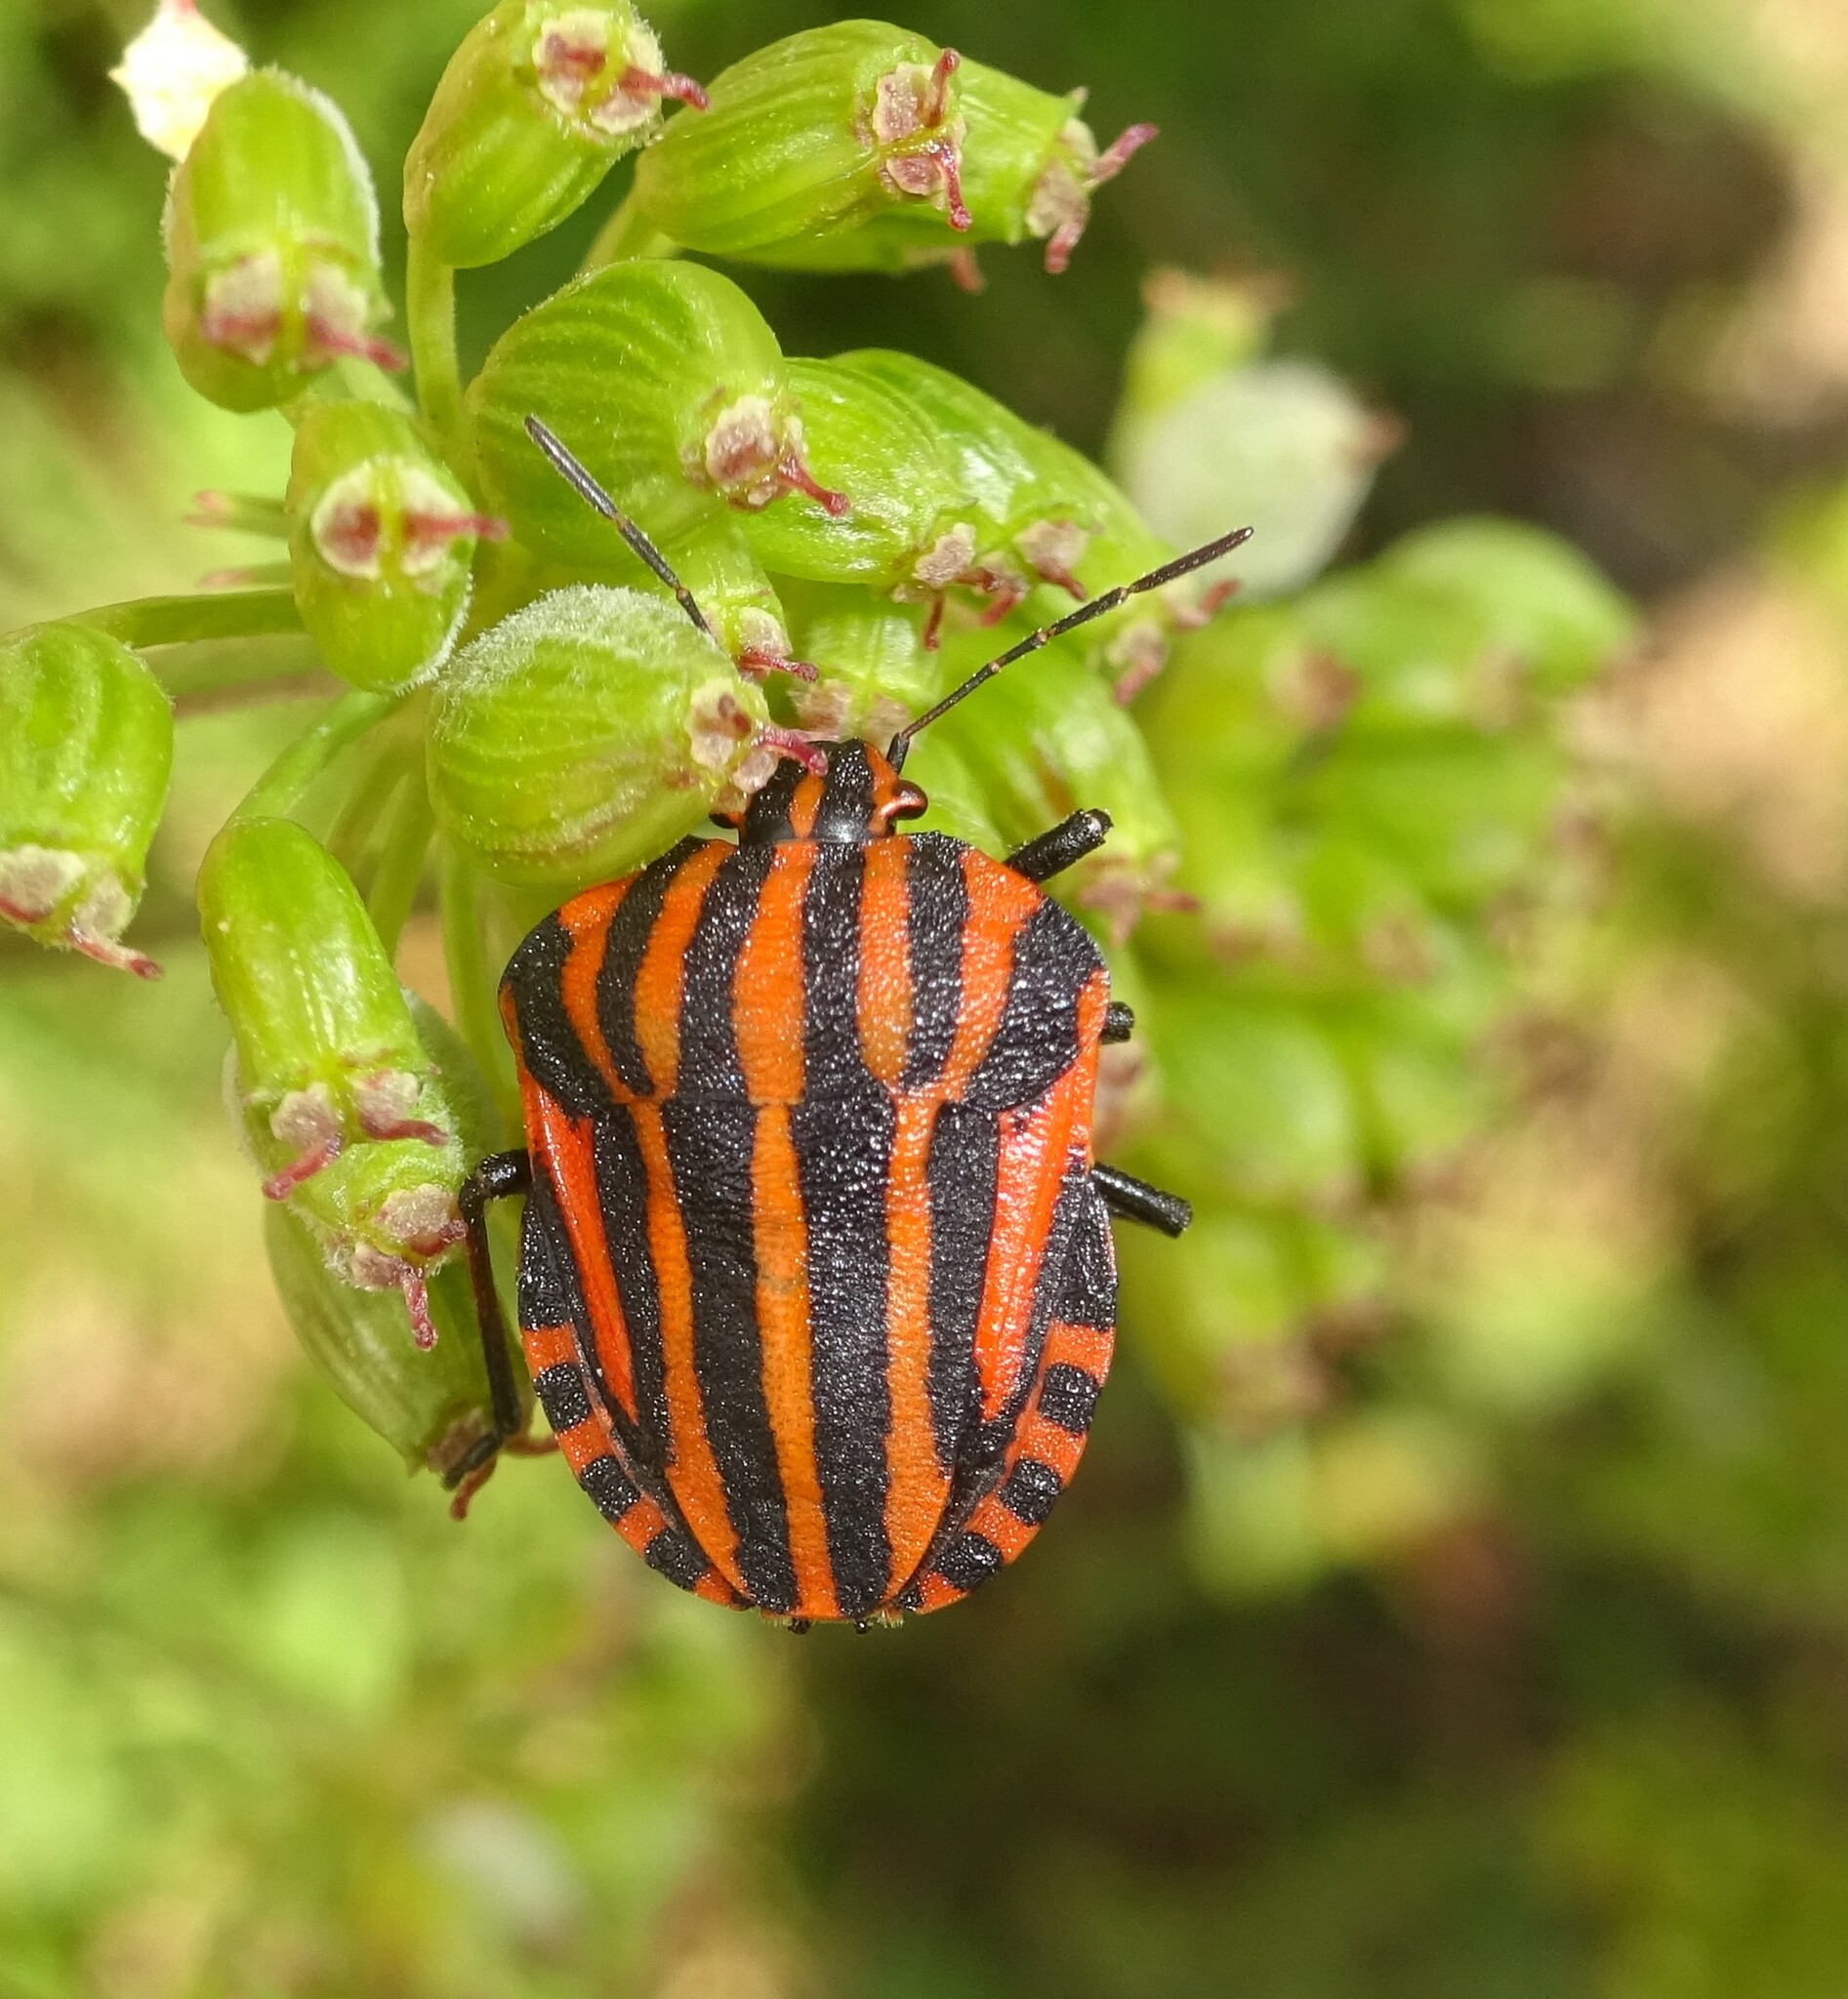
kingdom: Animalia
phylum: Arthropoda
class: Insecta
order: Hemiptera
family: Pentatomidae
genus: Graphosoma
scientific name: Graphosoma italicum
